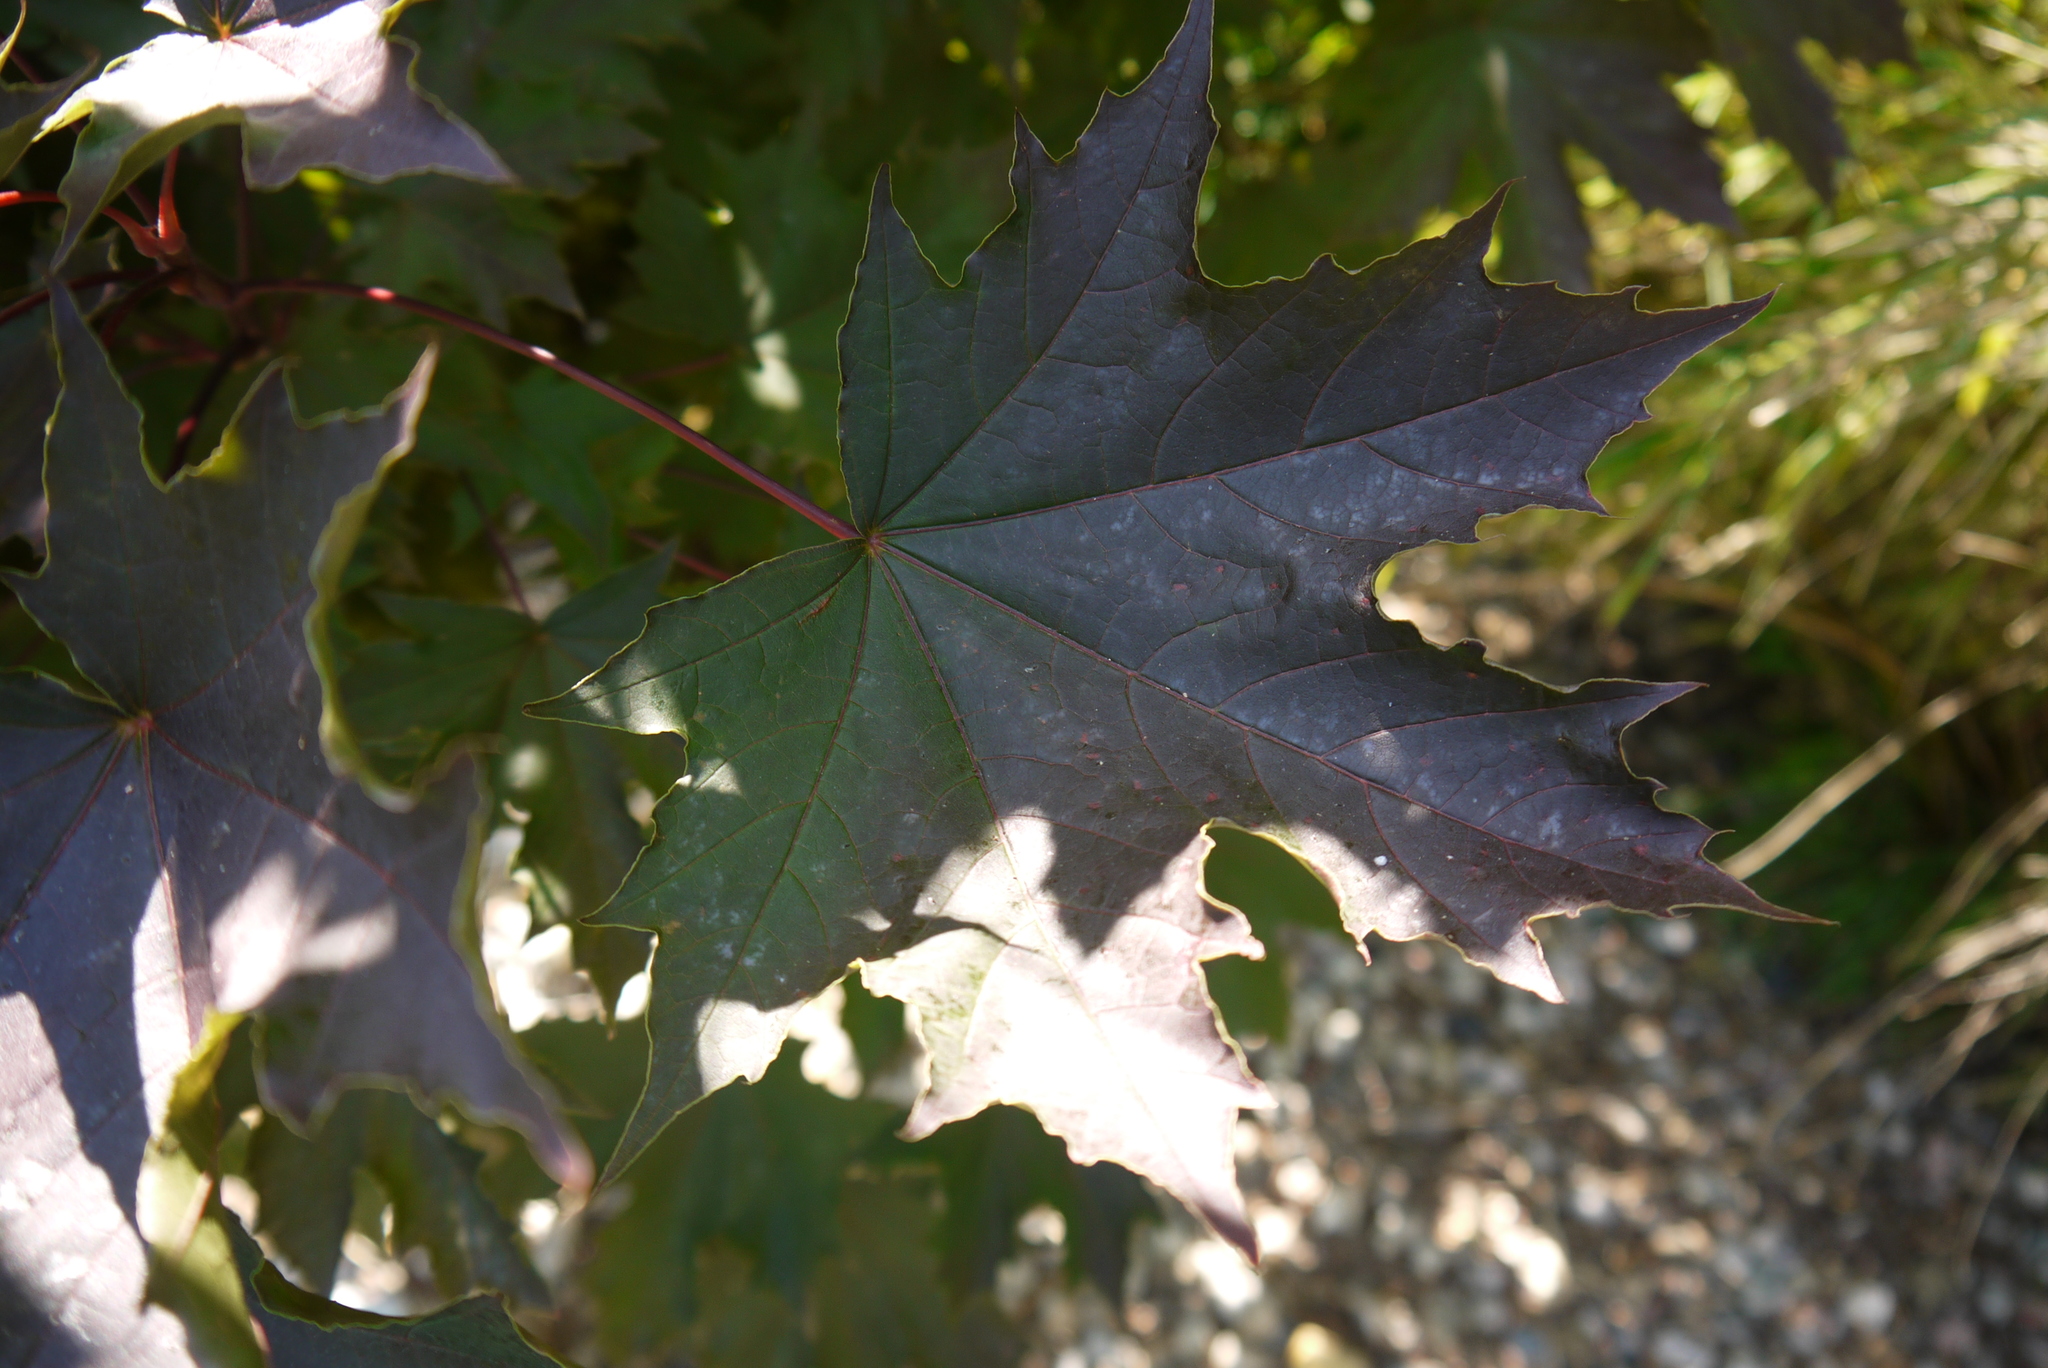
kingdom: Plantae
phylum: Tracheophyta
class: Magnoliopsida
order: Sapindales
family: Sapindaceae
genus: Acer
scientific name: Acer platanoides
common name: Norway maple
